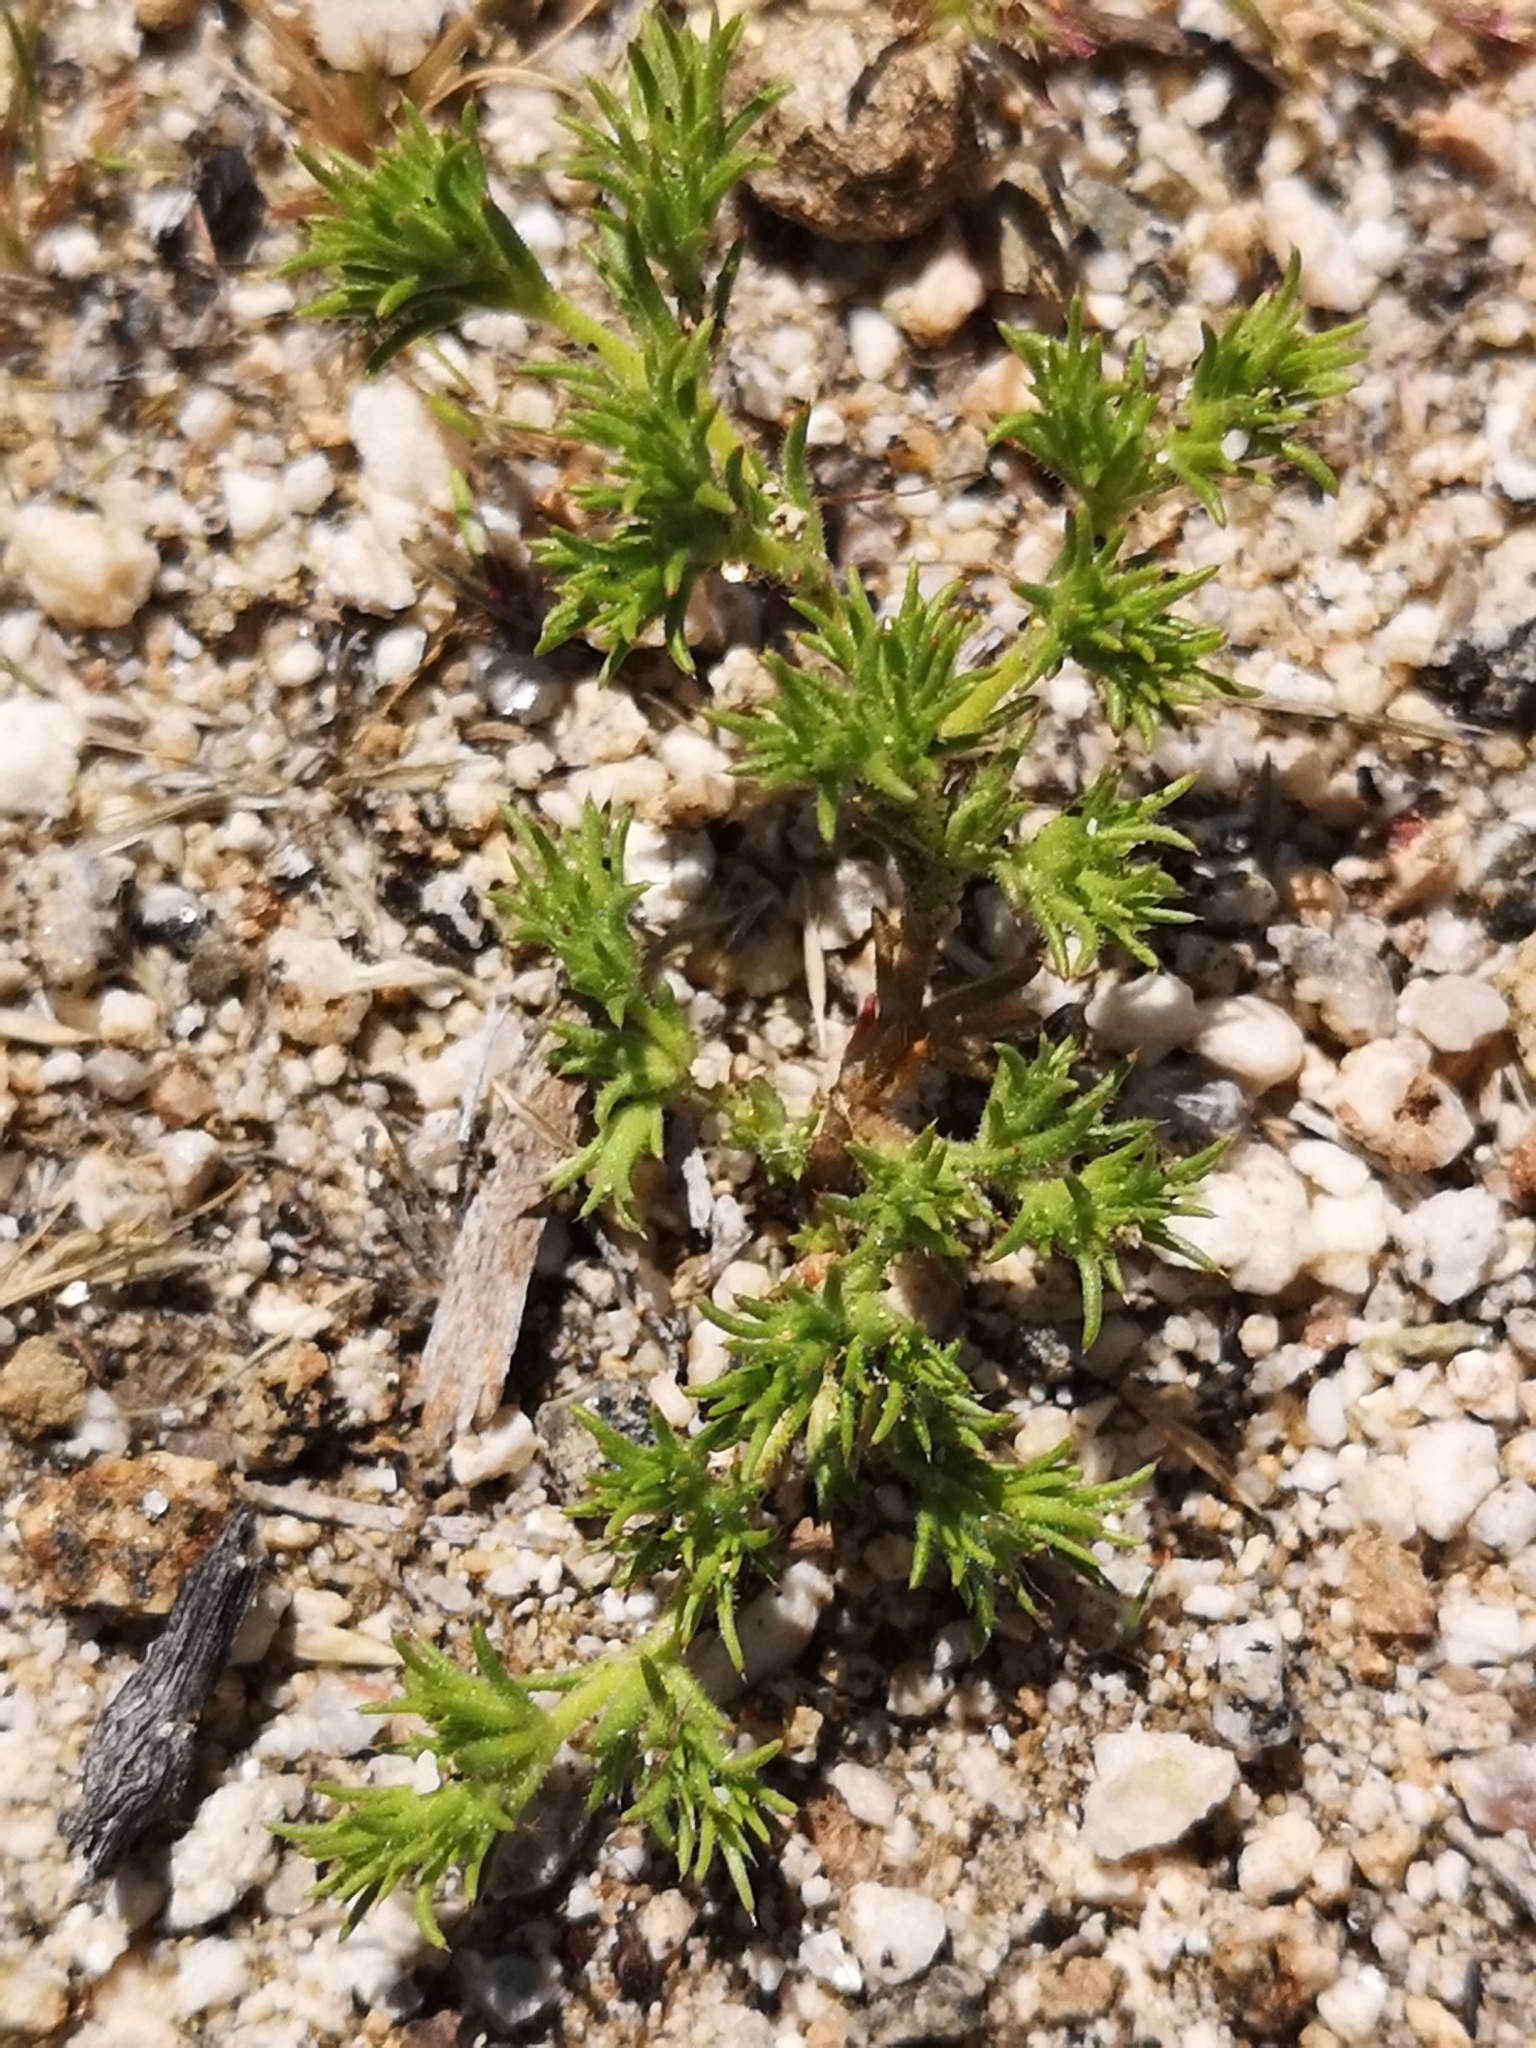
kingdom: Plantae
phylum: Tracheophyta
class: Magnoliopsida
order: Caryophyllales
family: Caryophyllaceae
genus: Loeflingia
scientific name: Loeflingia squarrosa
